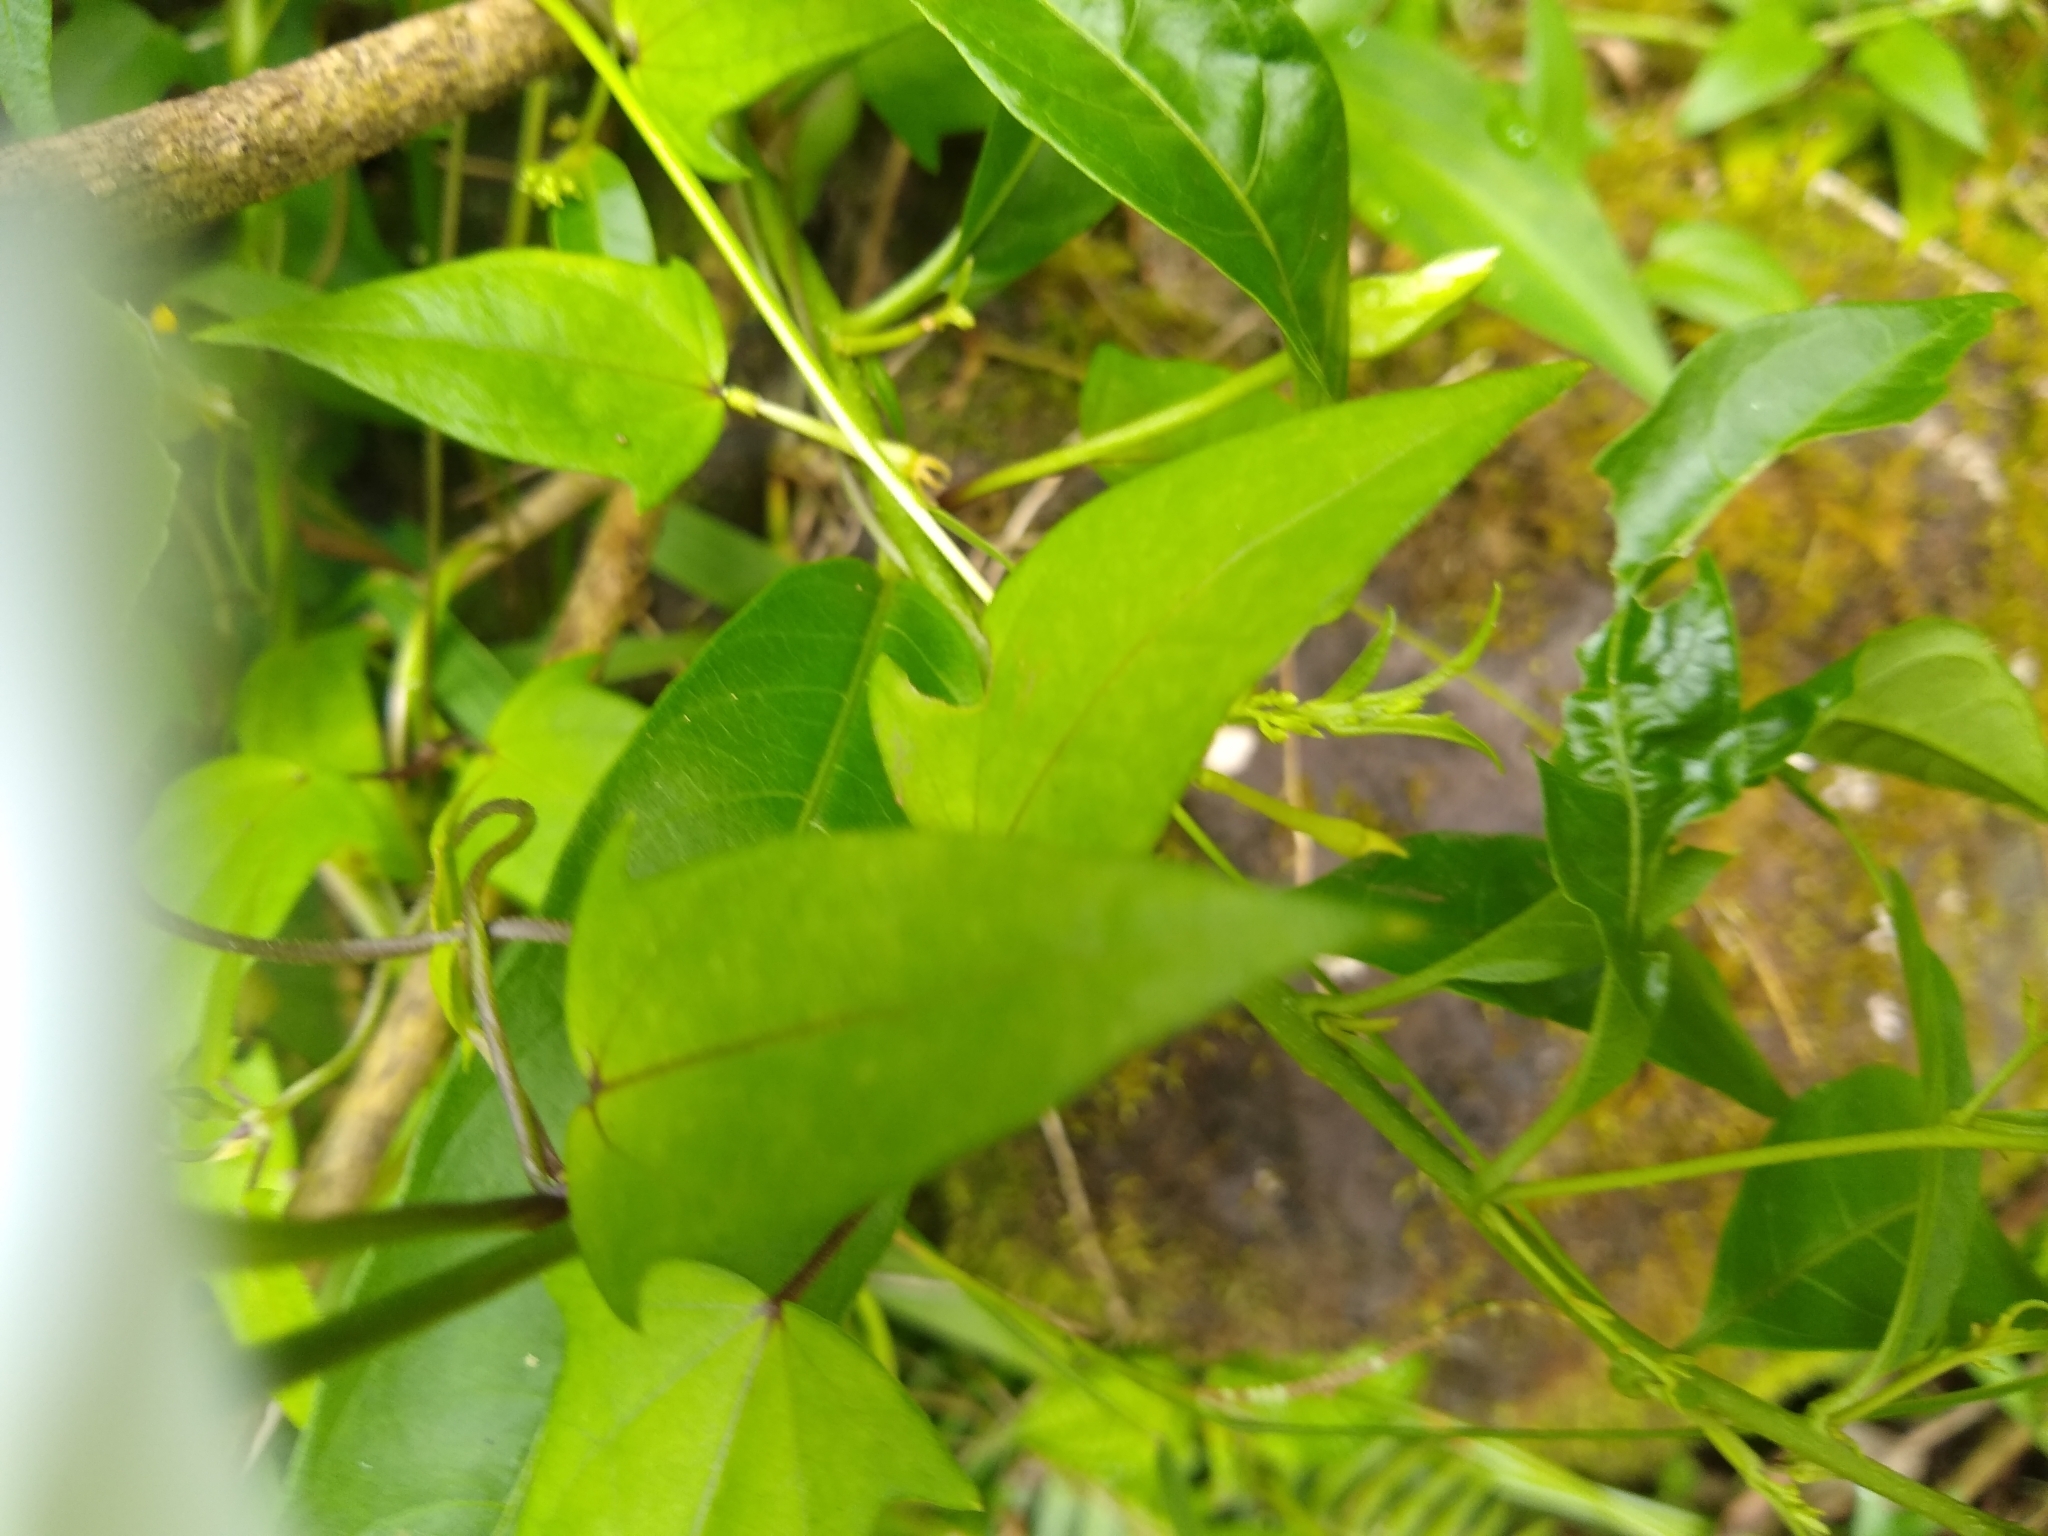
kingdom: Plantae
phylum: Tracheophyta
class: Magnoliopsida
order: Lamiales
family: Acanthaceae
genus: Thunbergia
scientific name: Thunbergia fragrans
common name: Whitelady
